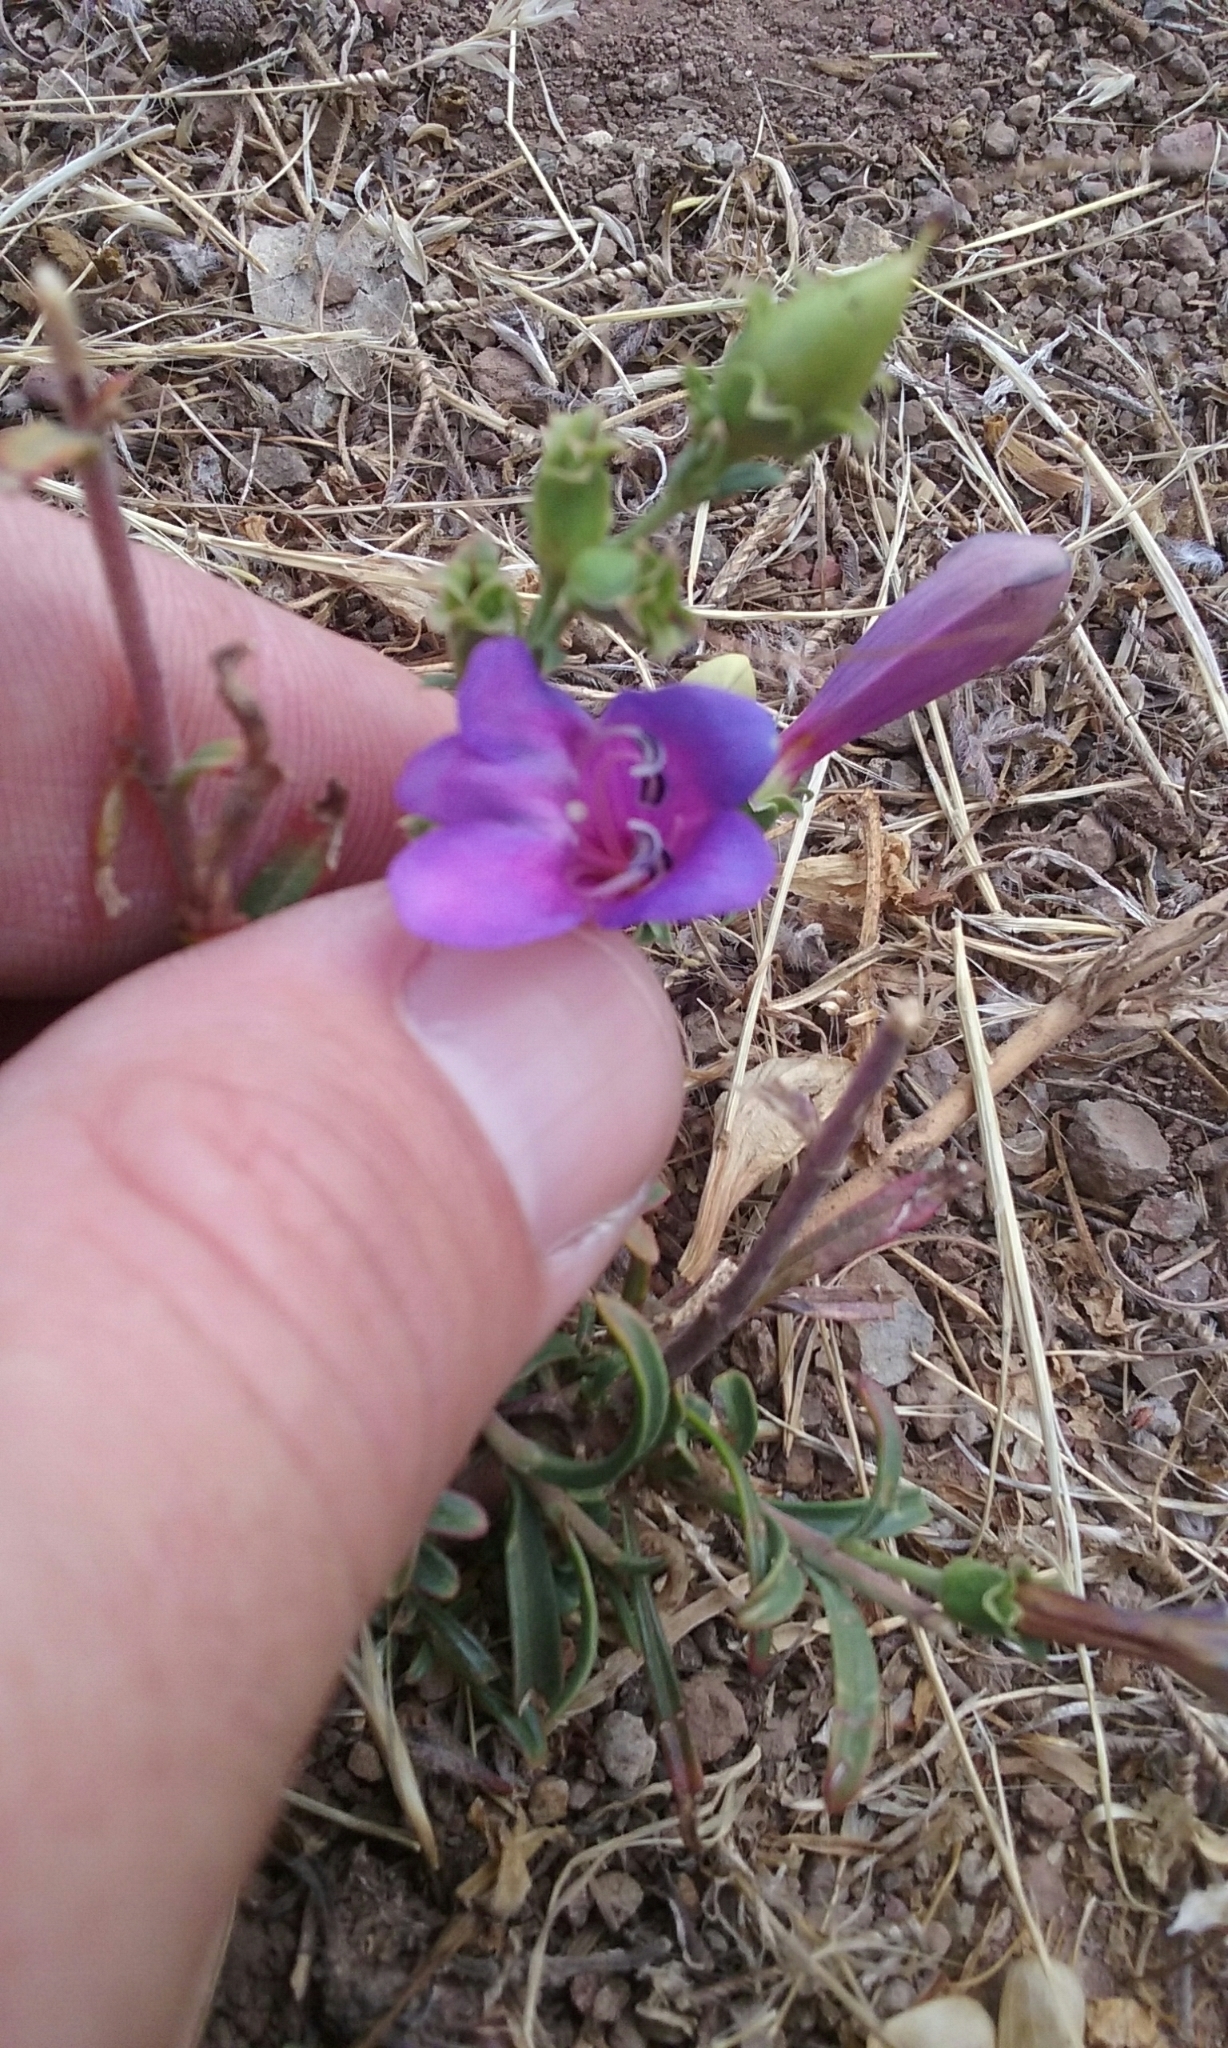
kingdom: Plantae
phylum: Tracheophyta
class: Magnoliopsida
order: Lamiales
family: Plantaginaceae
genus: Penstemon
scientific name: Penstemon heterophyllus
